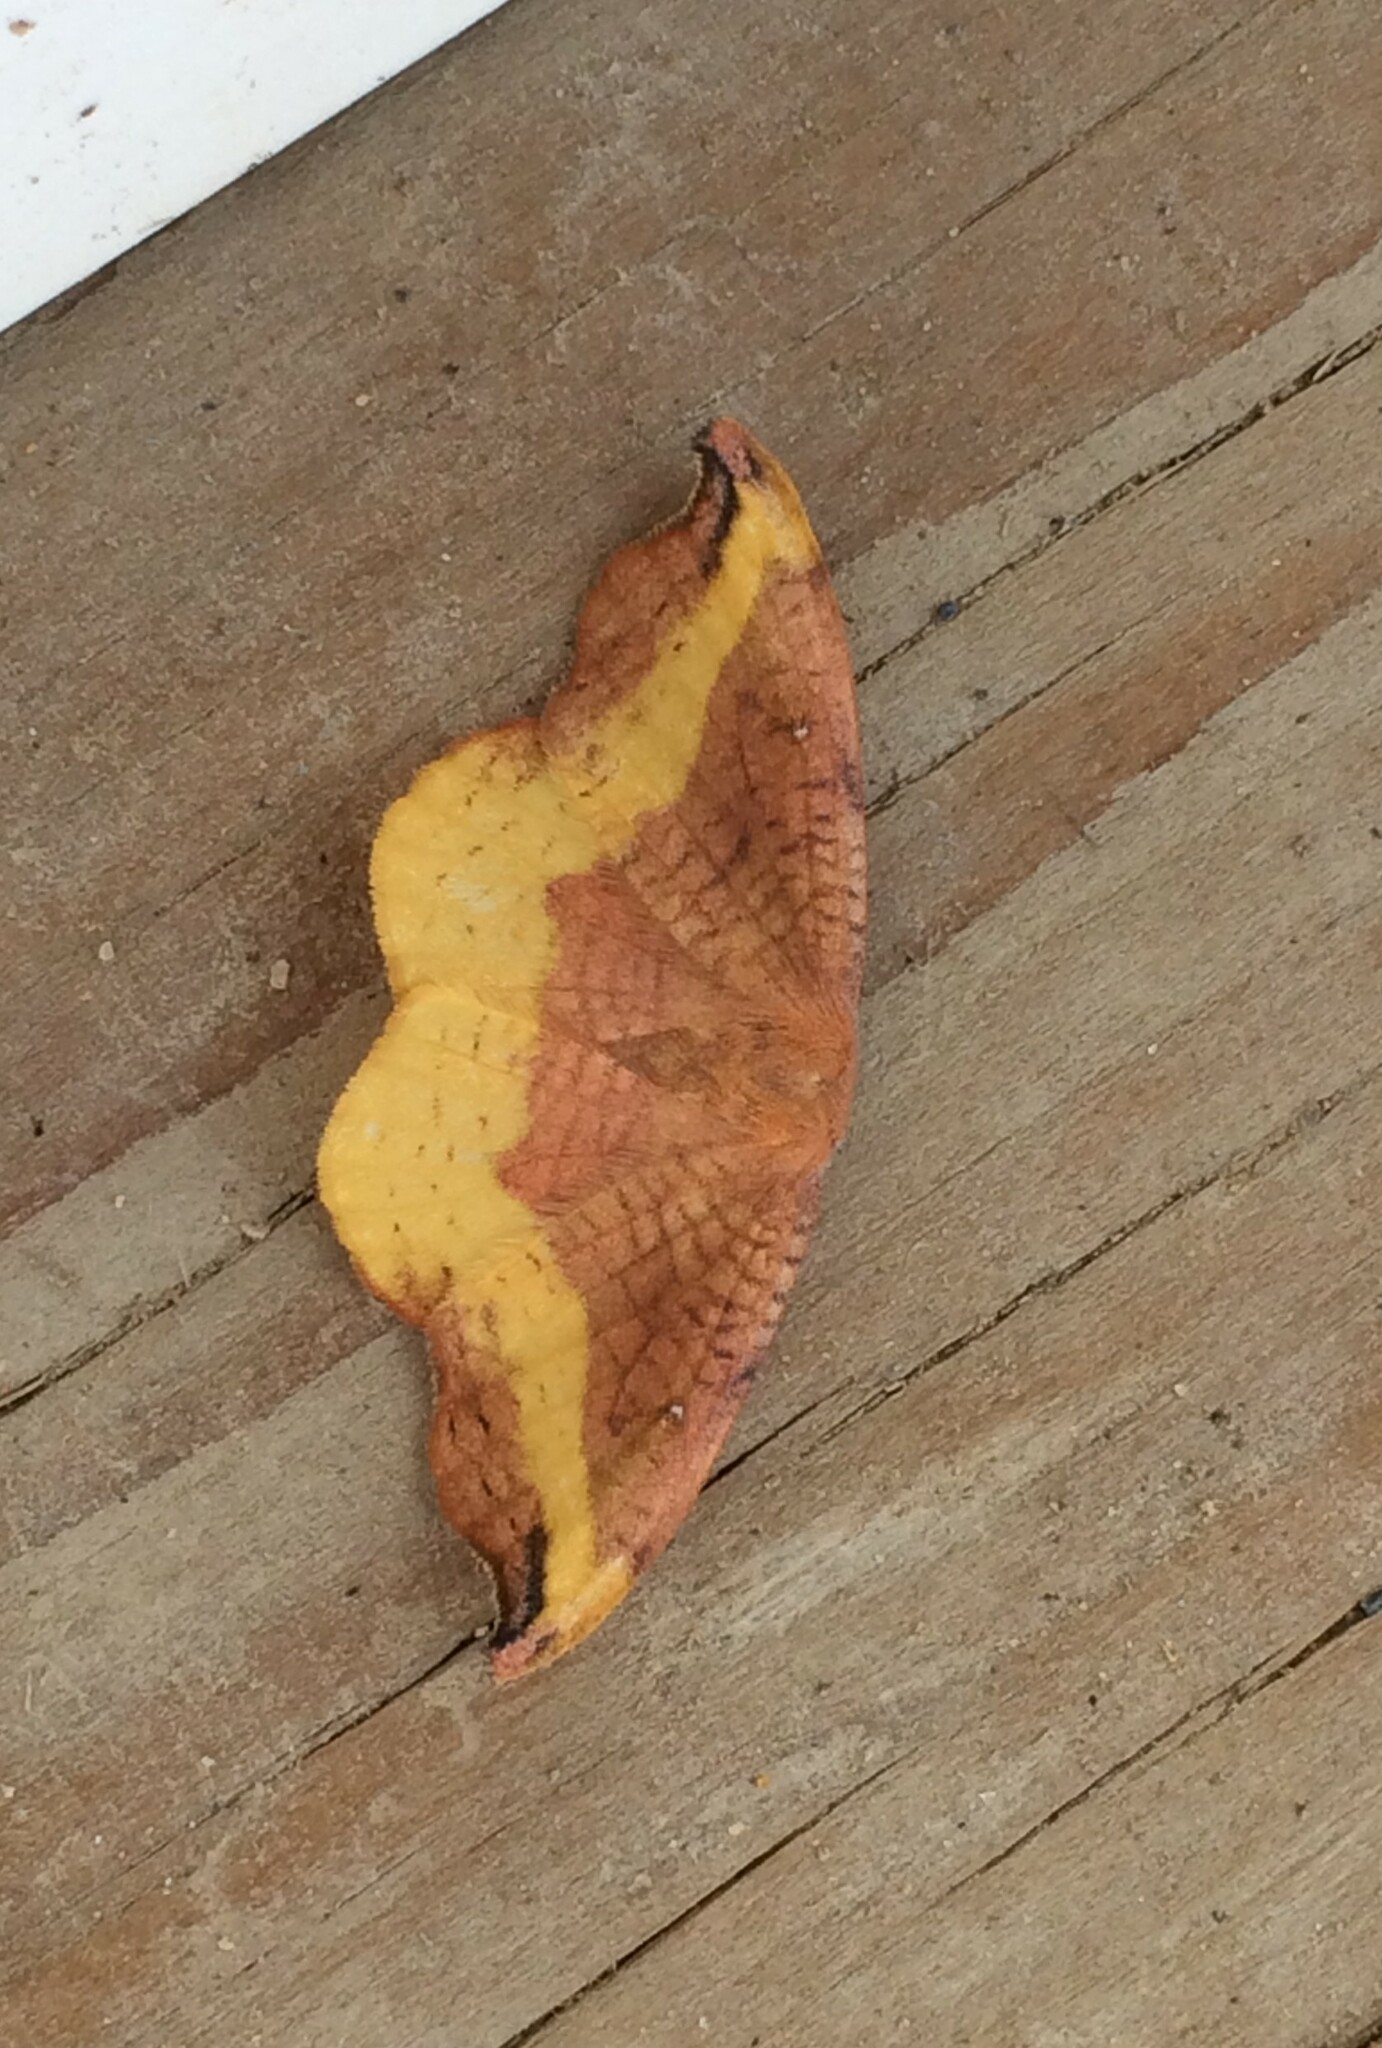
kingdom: Animalia
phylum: Arthropoda
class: Insecta
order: Lepidoptera
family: Drepanidae
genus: Oreta
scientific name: Oreta rosea
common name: Rose hooktip
